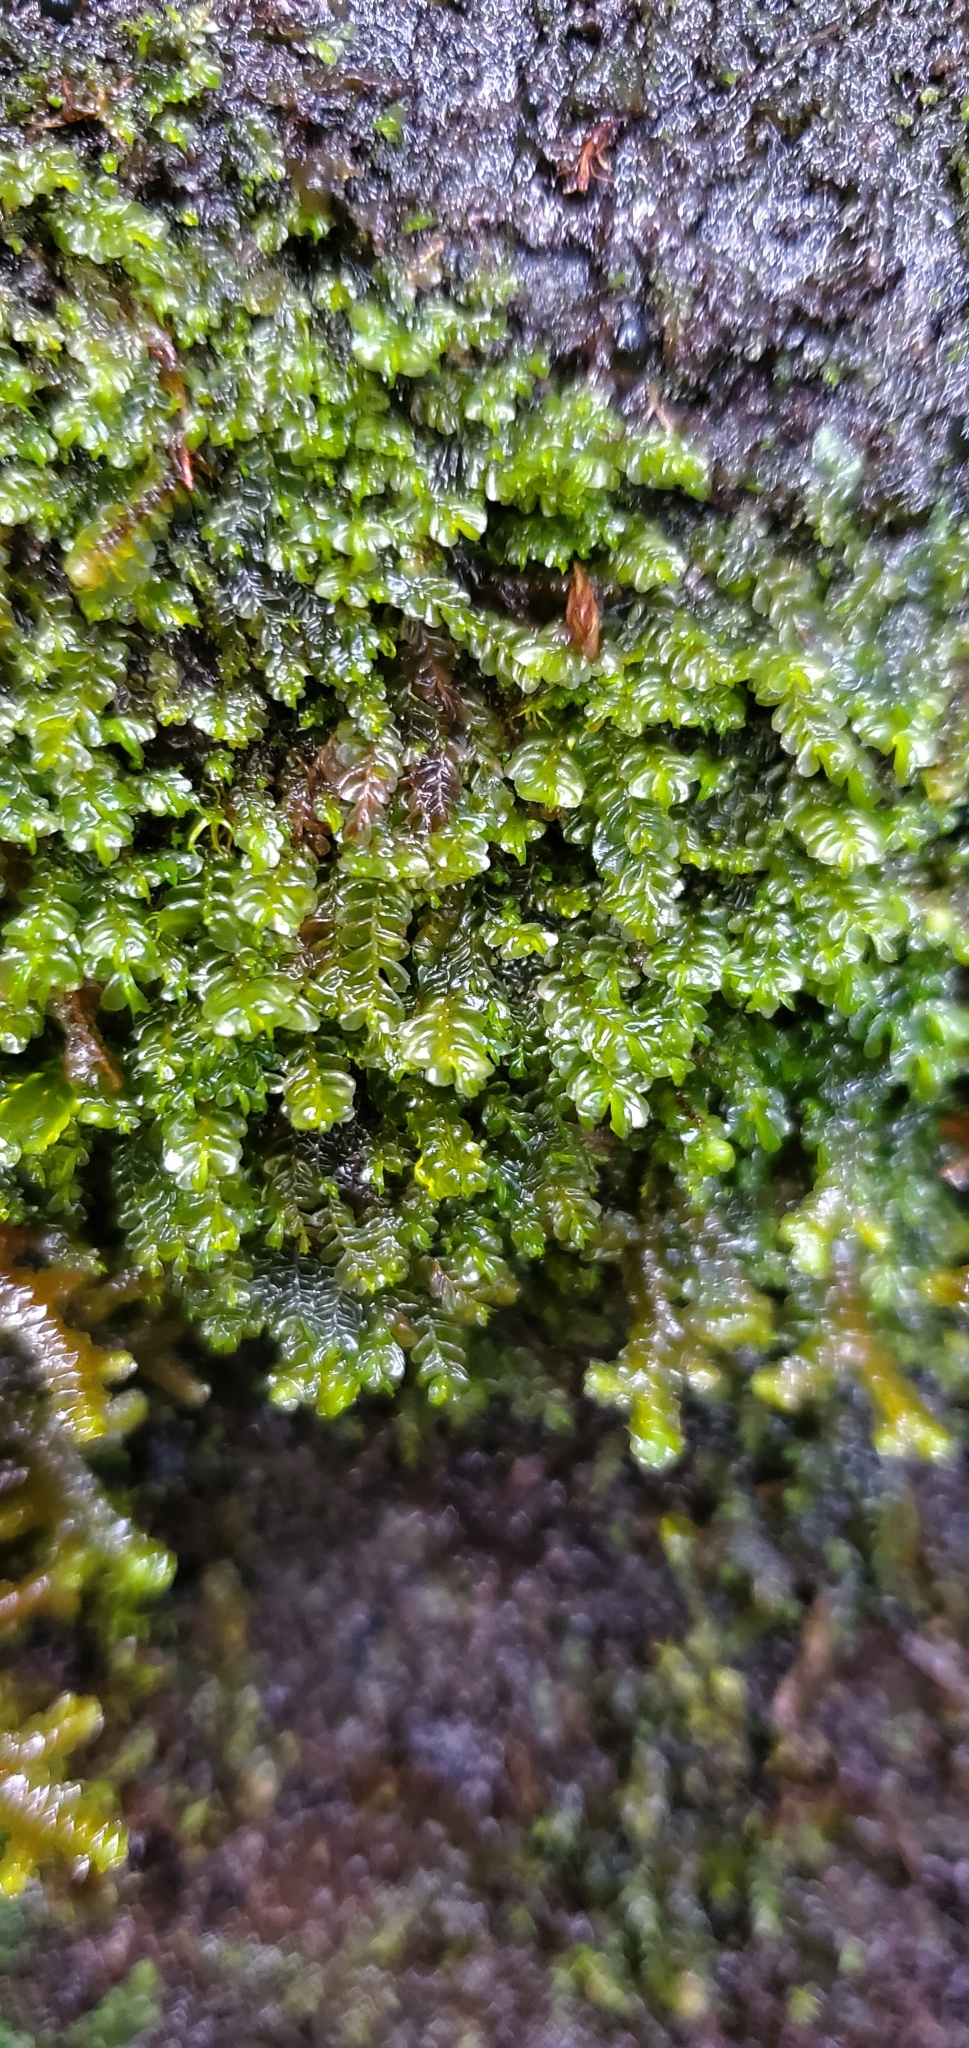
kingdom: Plantae
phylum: Marchantiophyta
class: Jungermanniopsida
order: Jungermanniales
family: Plagiochilaceae
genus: Plagiochila
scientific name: Plagiochila porelloides
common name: Lesser featherwort
